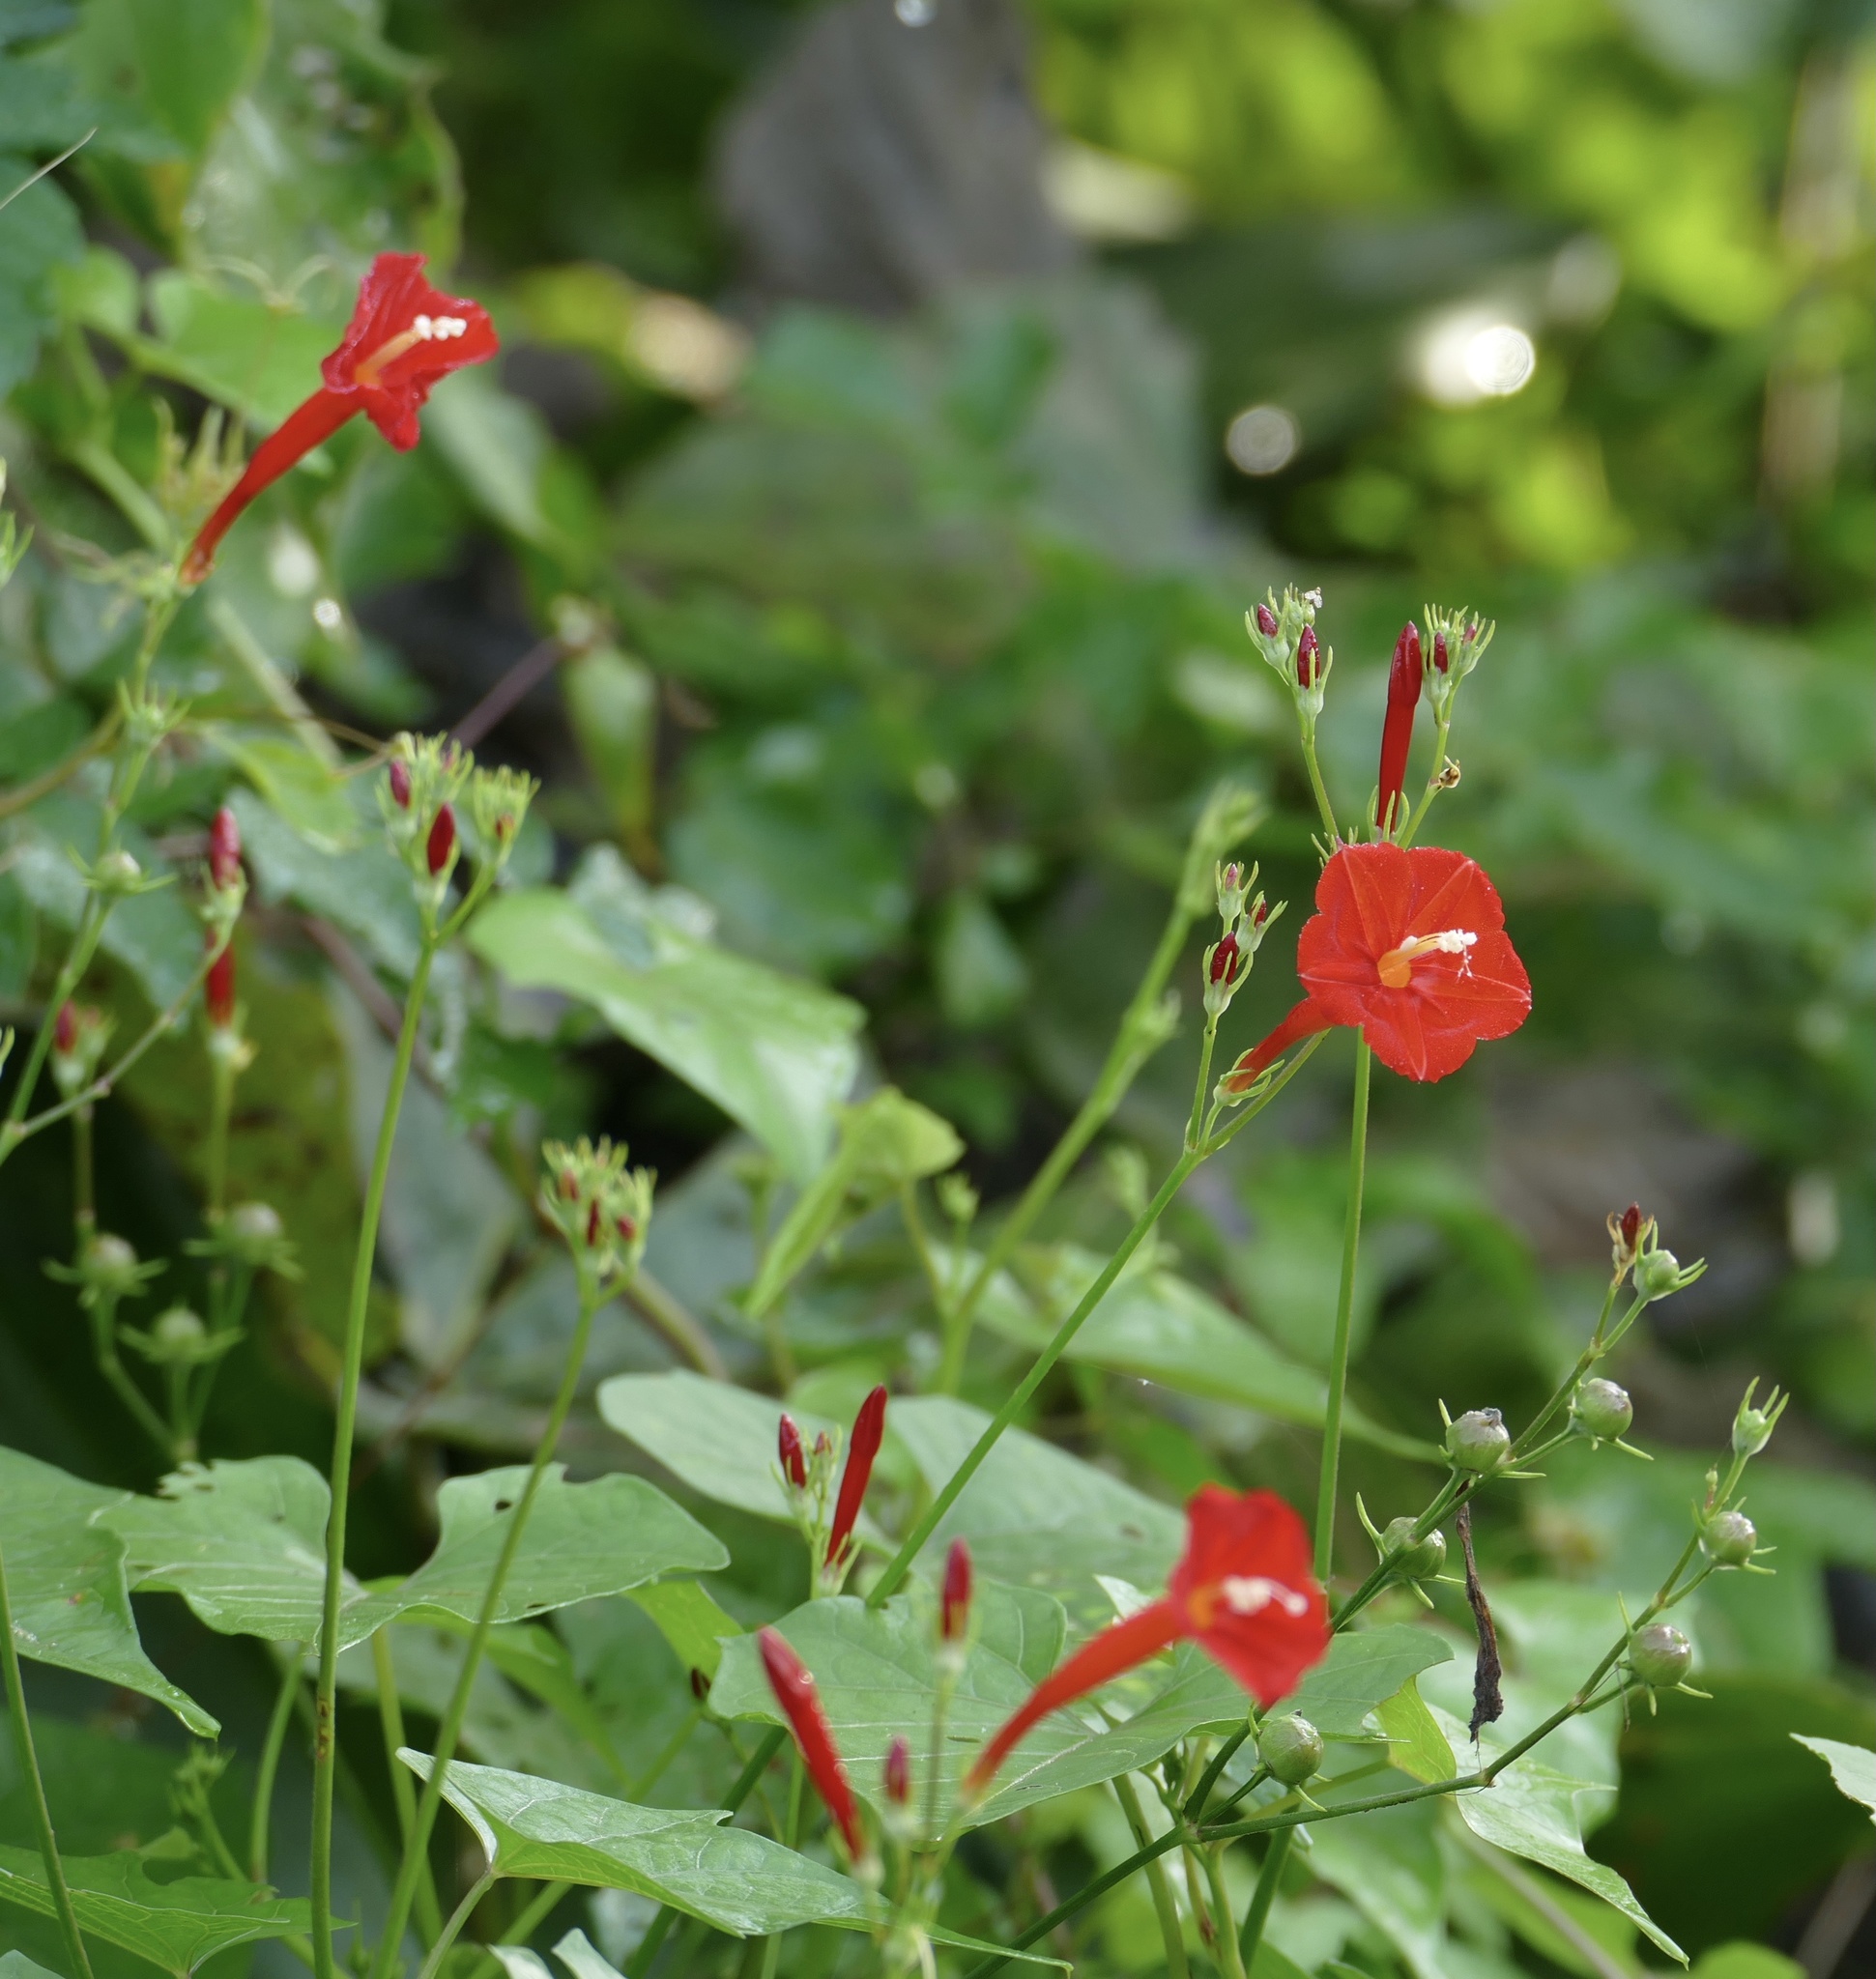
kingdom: Plantae
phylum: Tracheophyta
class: Magnoliopsida
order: Solanales
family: Convolvulaceae
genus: Ipomoea
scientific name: Ipomoea hederifolia
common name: Ivy-leaf morning-glory
